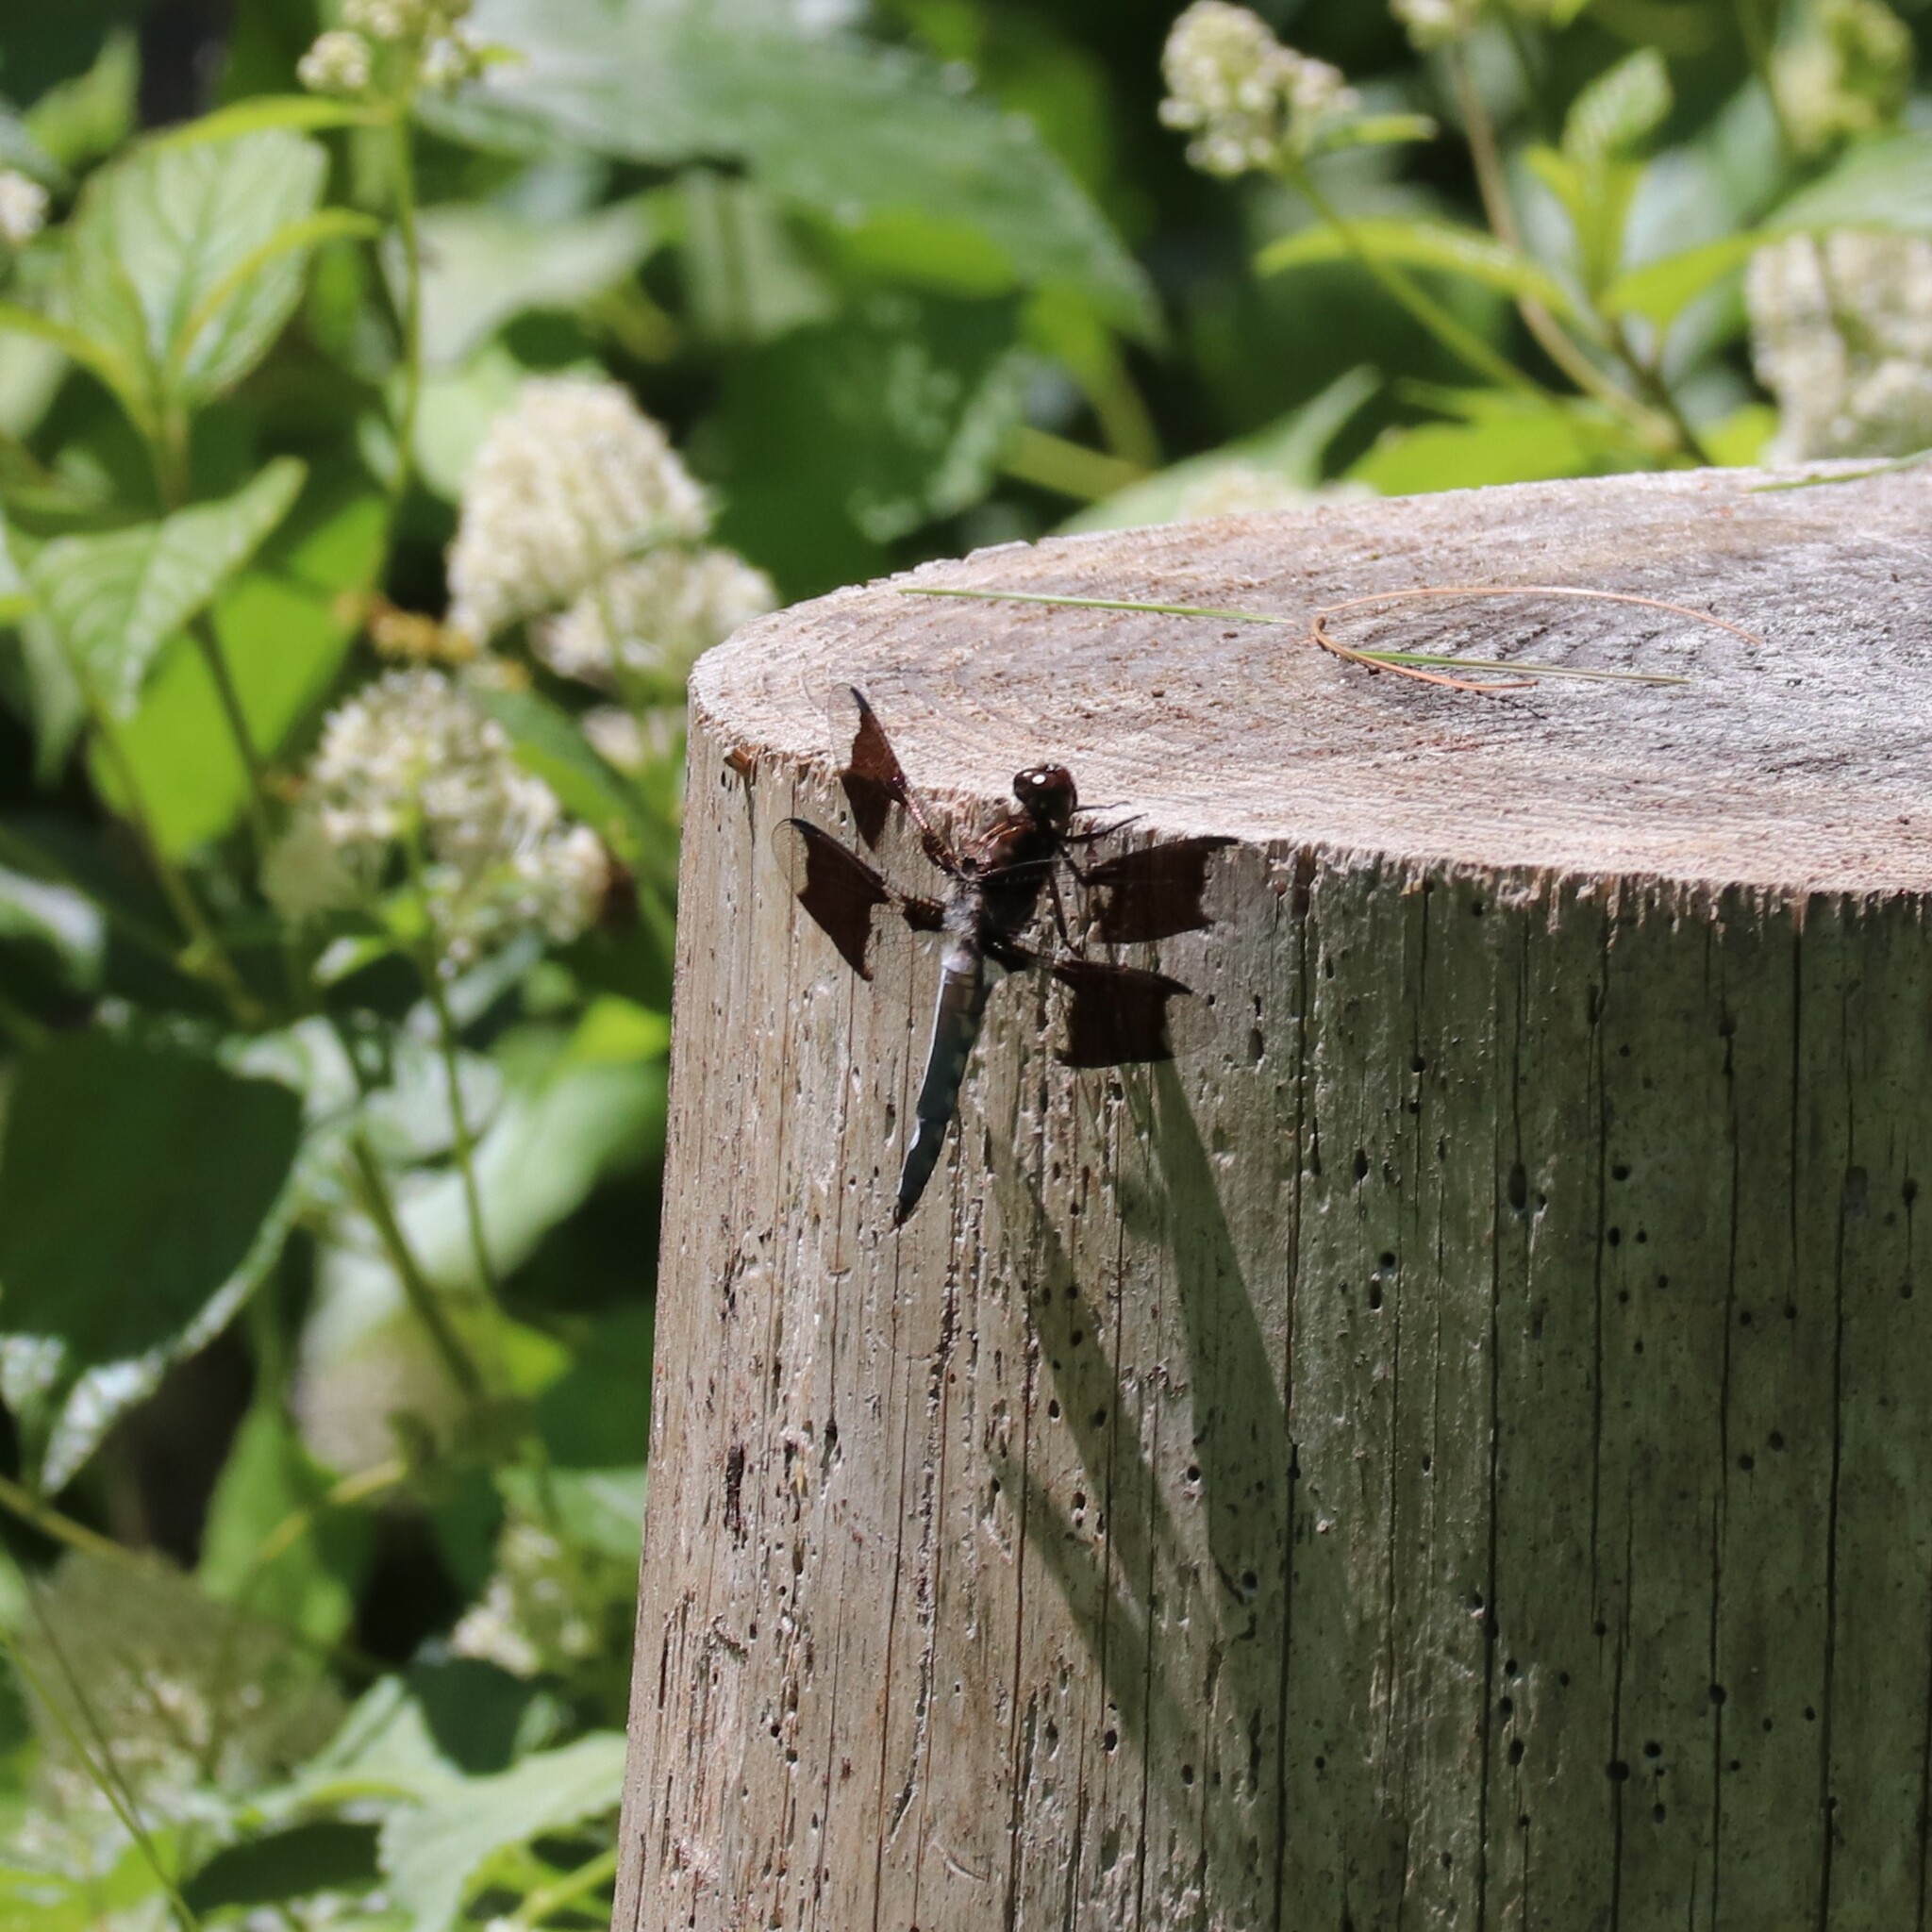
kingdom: Animalia
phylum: Arthropoda
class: Insecta
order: Odonata
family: Libellulidae
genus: Plathemis
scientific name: Plathemis lydia
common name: Common whitetail
